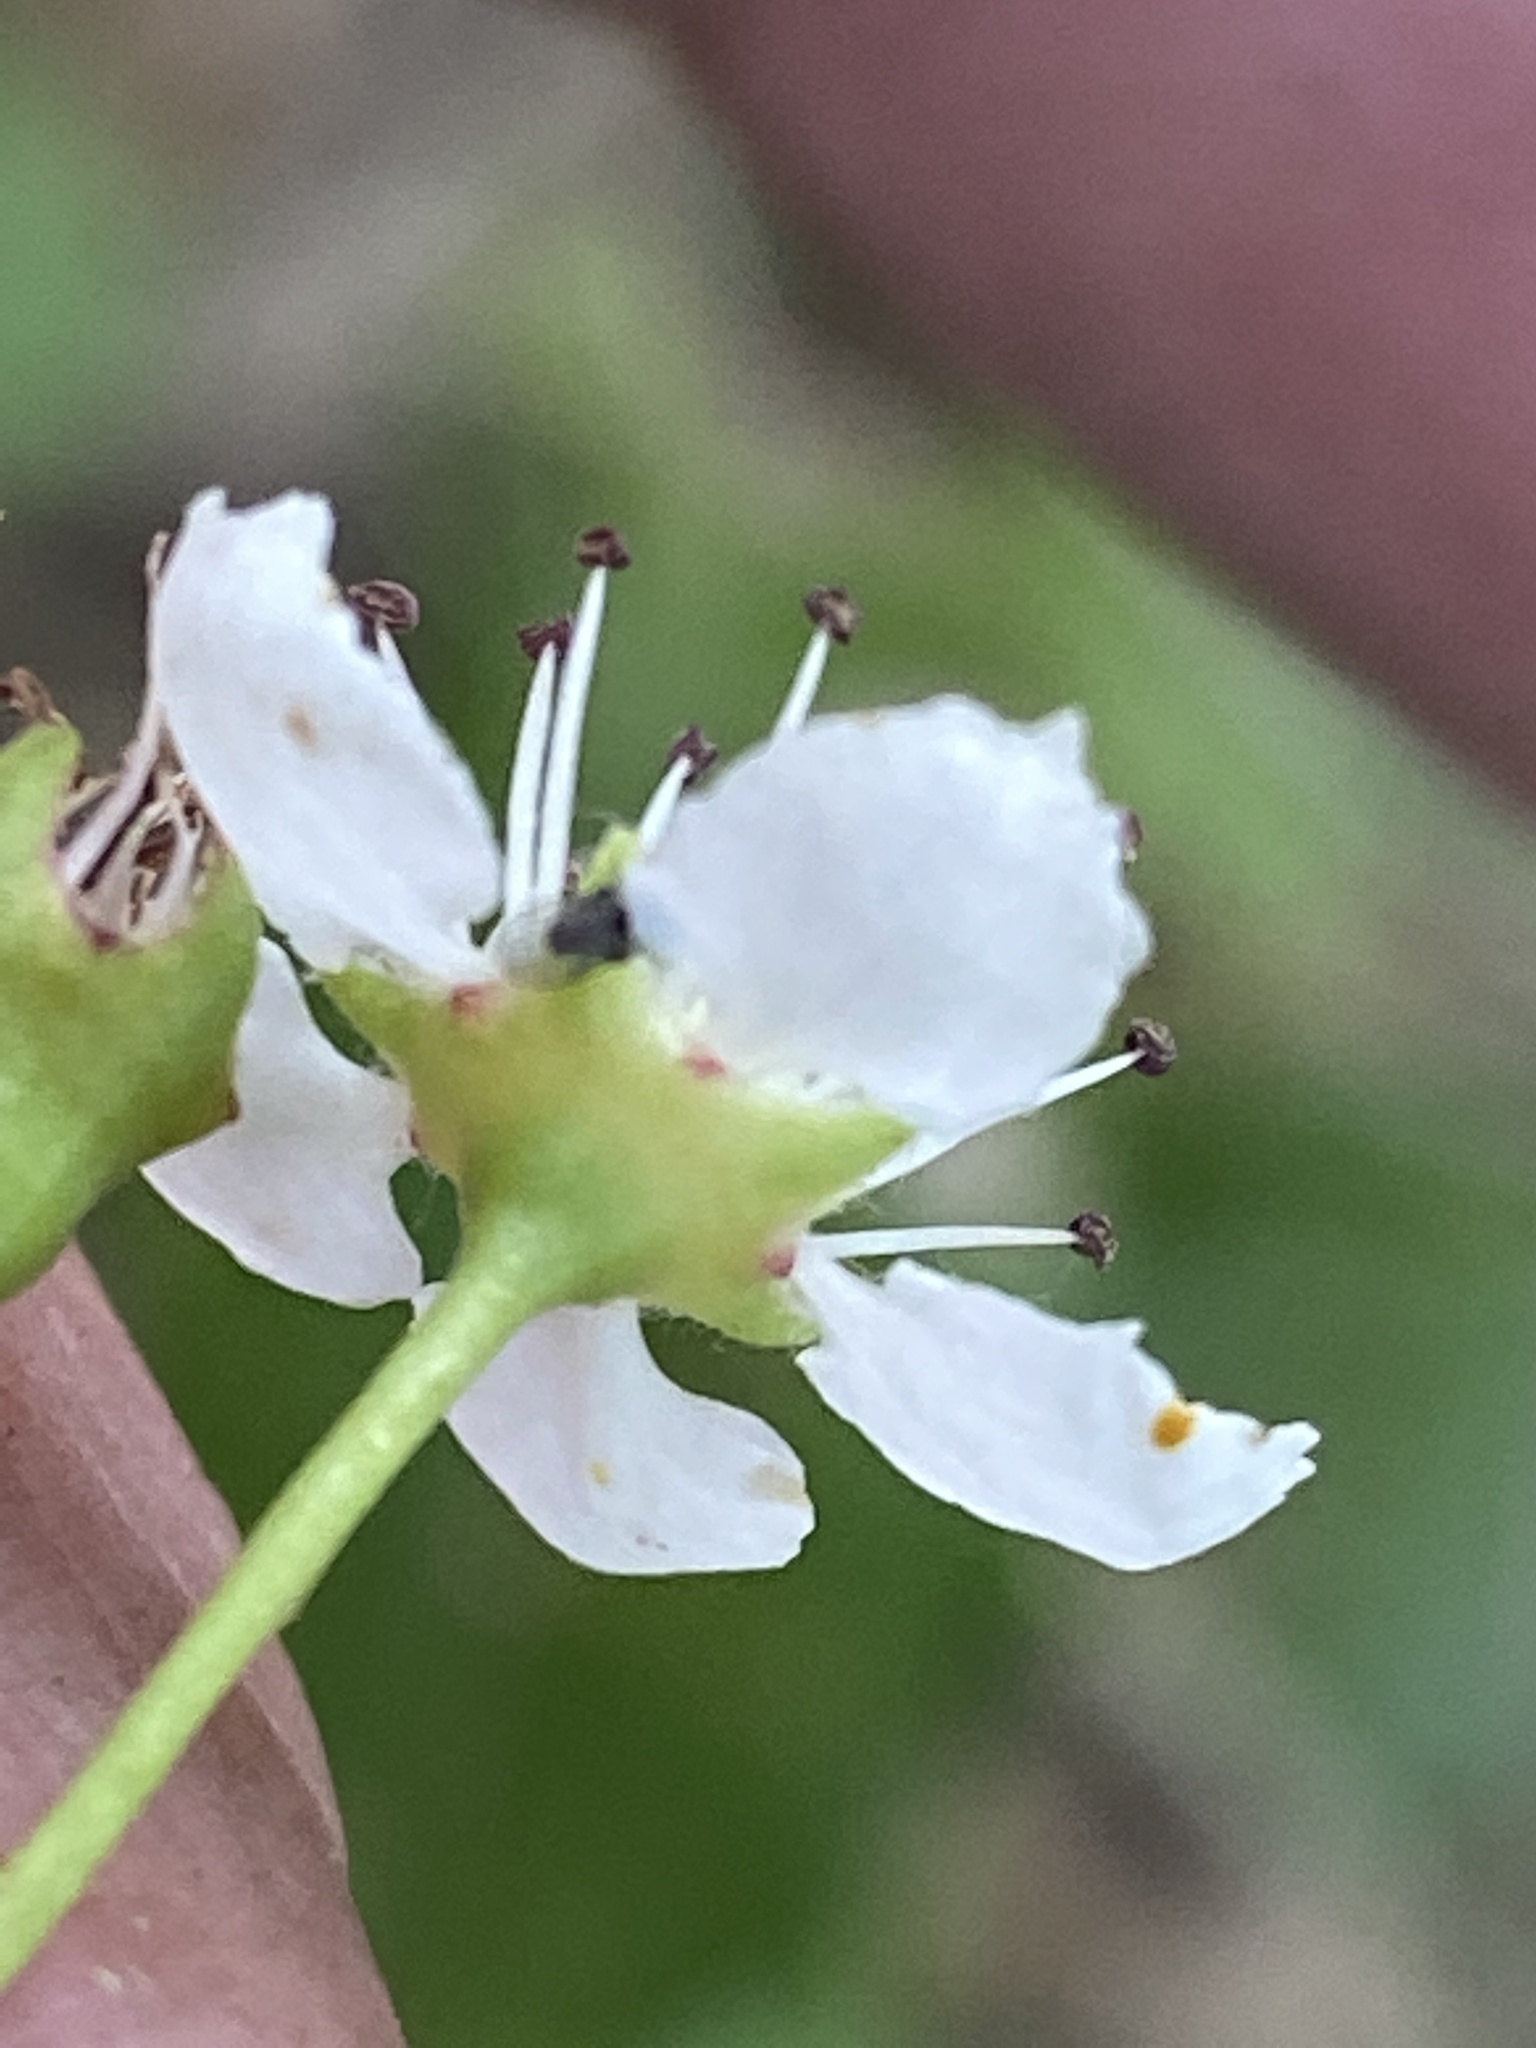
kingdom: Plantae
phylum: Tracheophyta
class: Magnoliopsida
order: Rosales
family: Rosaceae
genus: Aronia
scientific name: Aronia melanocarpa
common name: Black chokeberry
